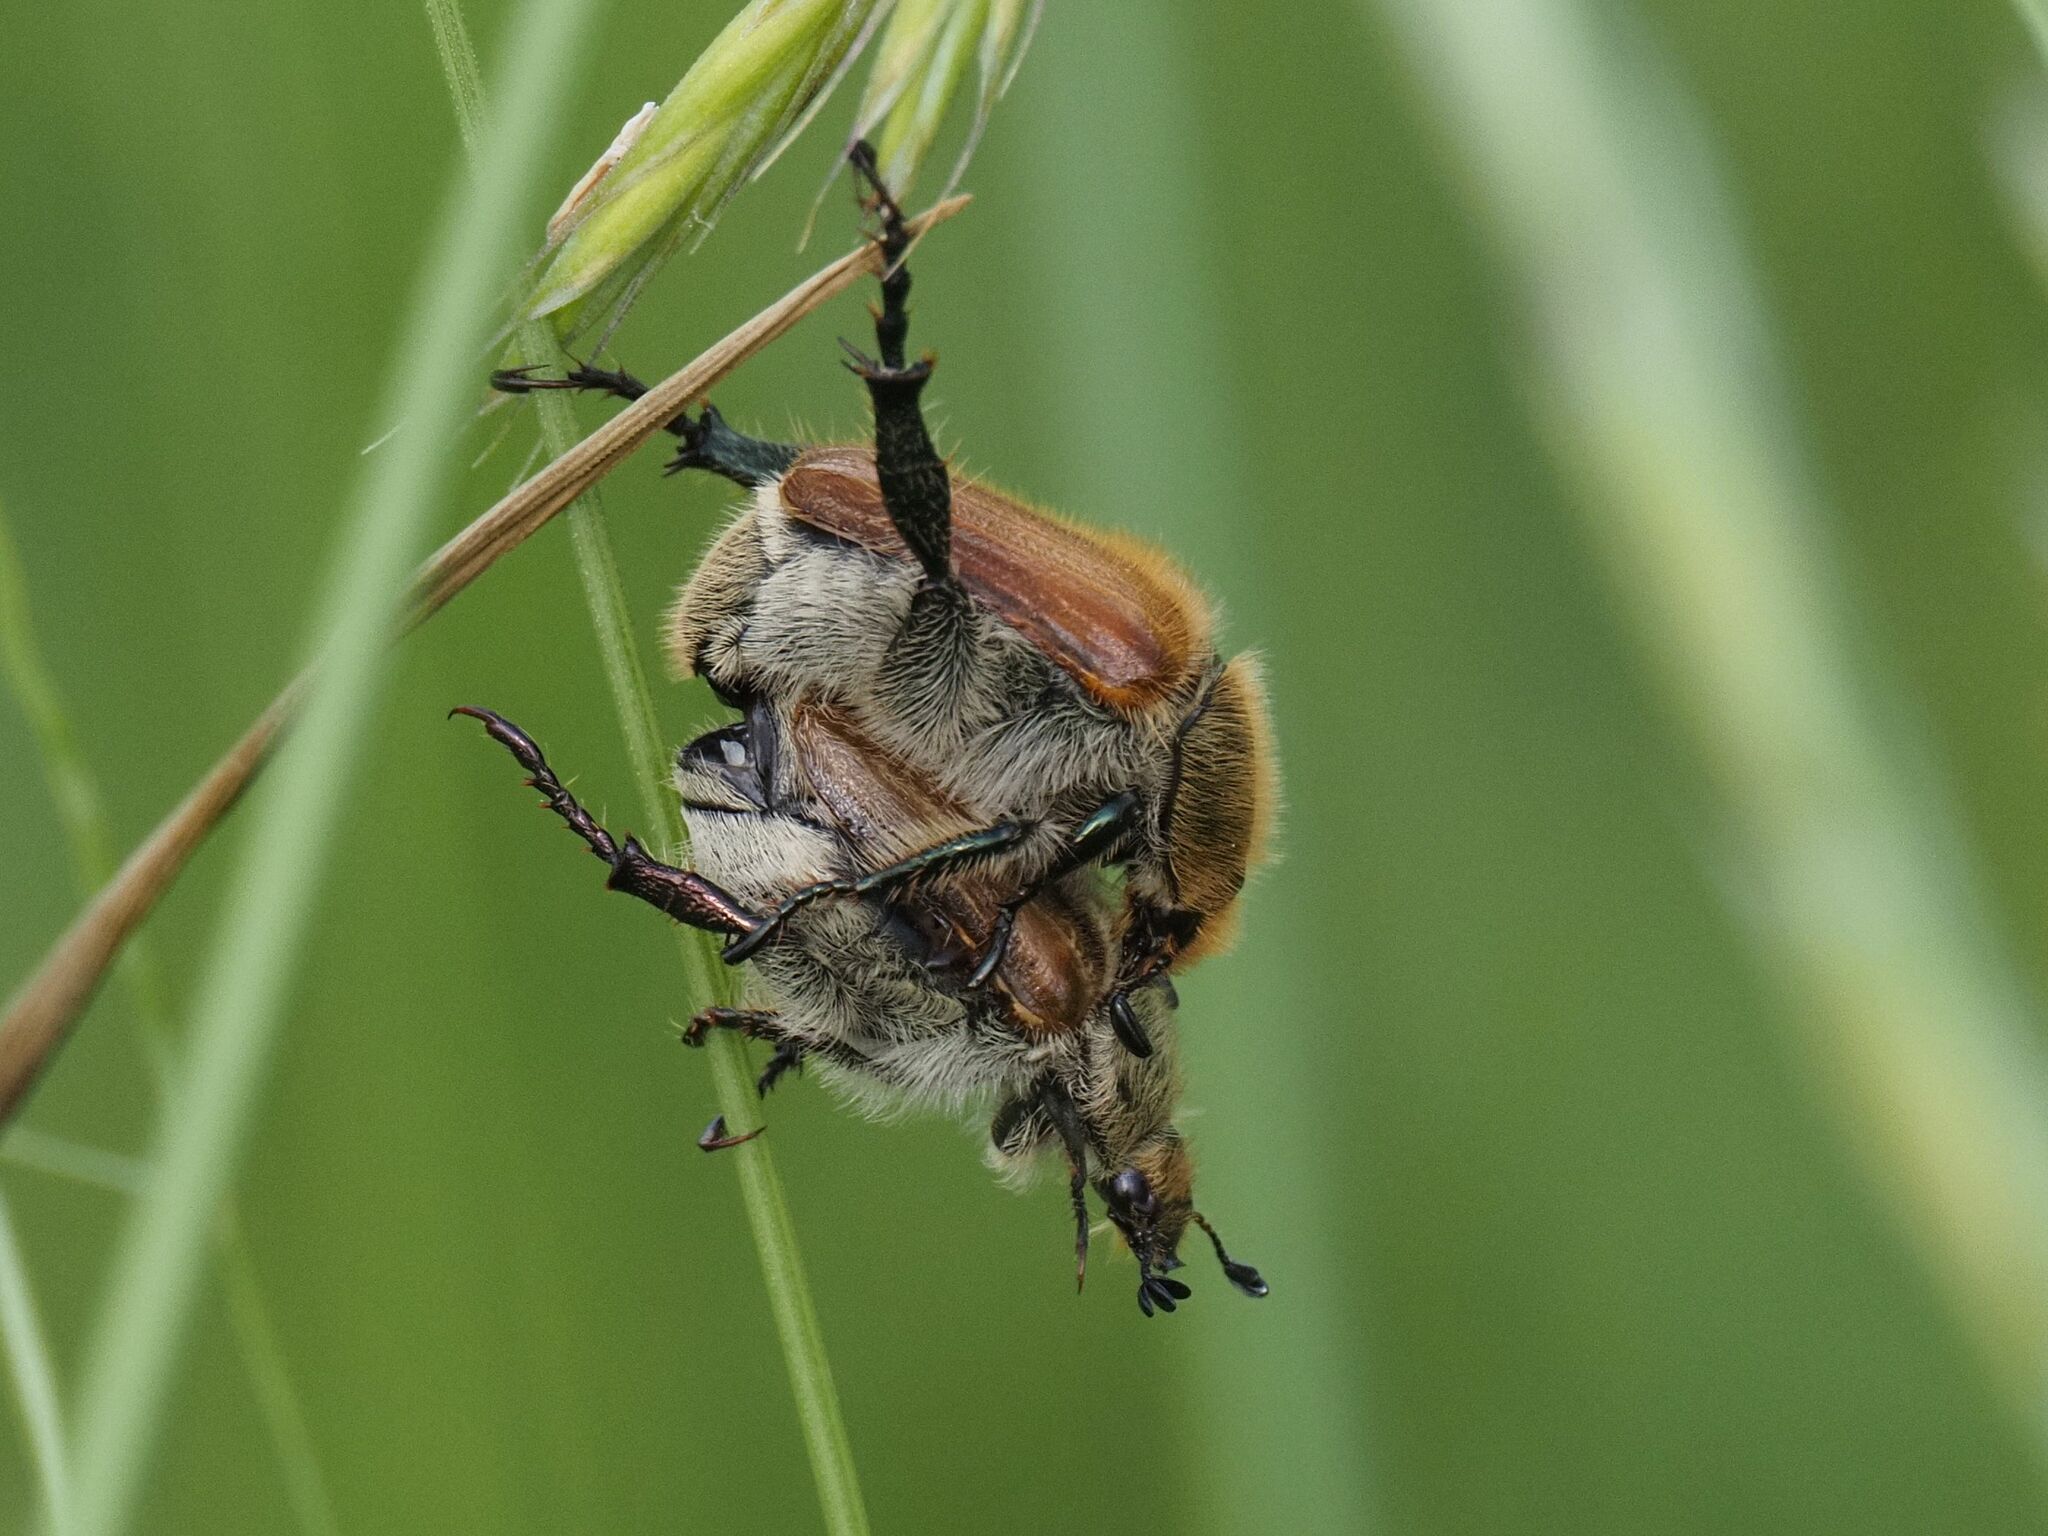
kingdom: Animalia
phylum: Arthropoda
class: Insecta
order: Coleoptera
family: Scarabaeidae
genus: Chaetopteroplia
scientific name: Chaetopteroplia segetum
